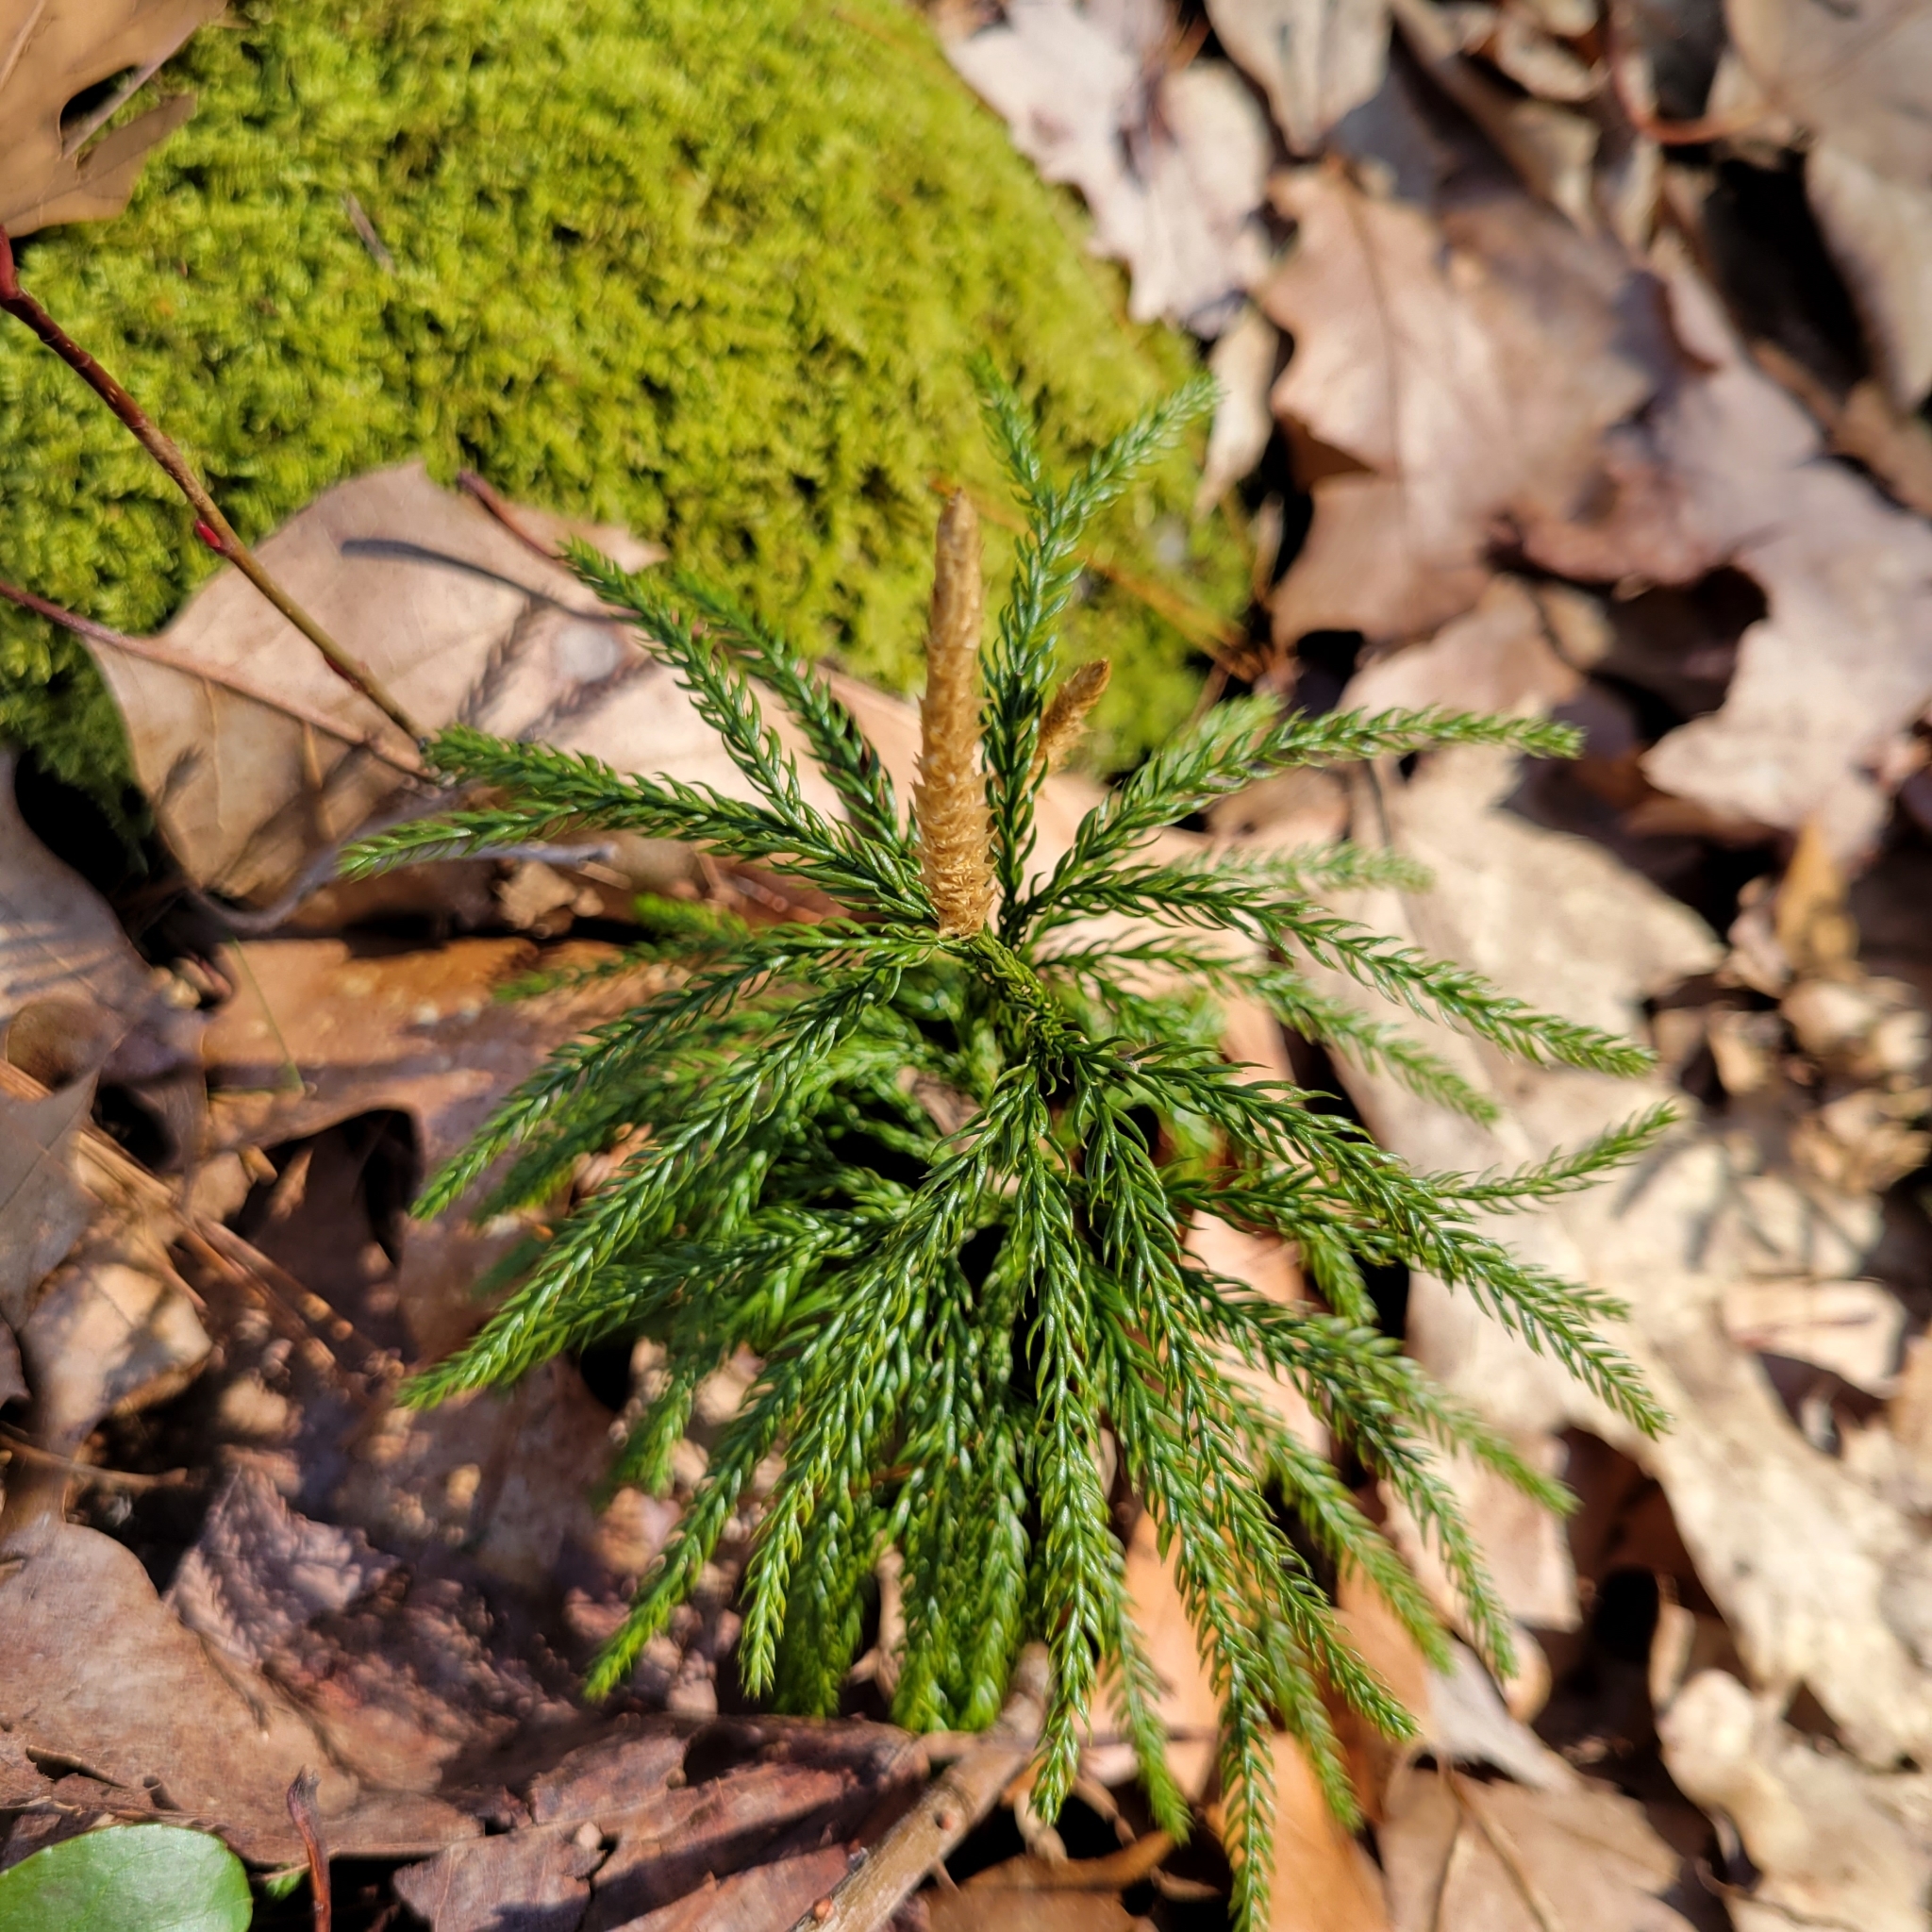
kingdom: Plantae
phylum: Tracheophyta
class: Lycopodiopsida
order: Lycopodiales
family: Lycopodiaceae
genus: Dendrolycopodium
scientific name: Dendrolycopodium hickeyi
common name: Hickey's clubmoss
